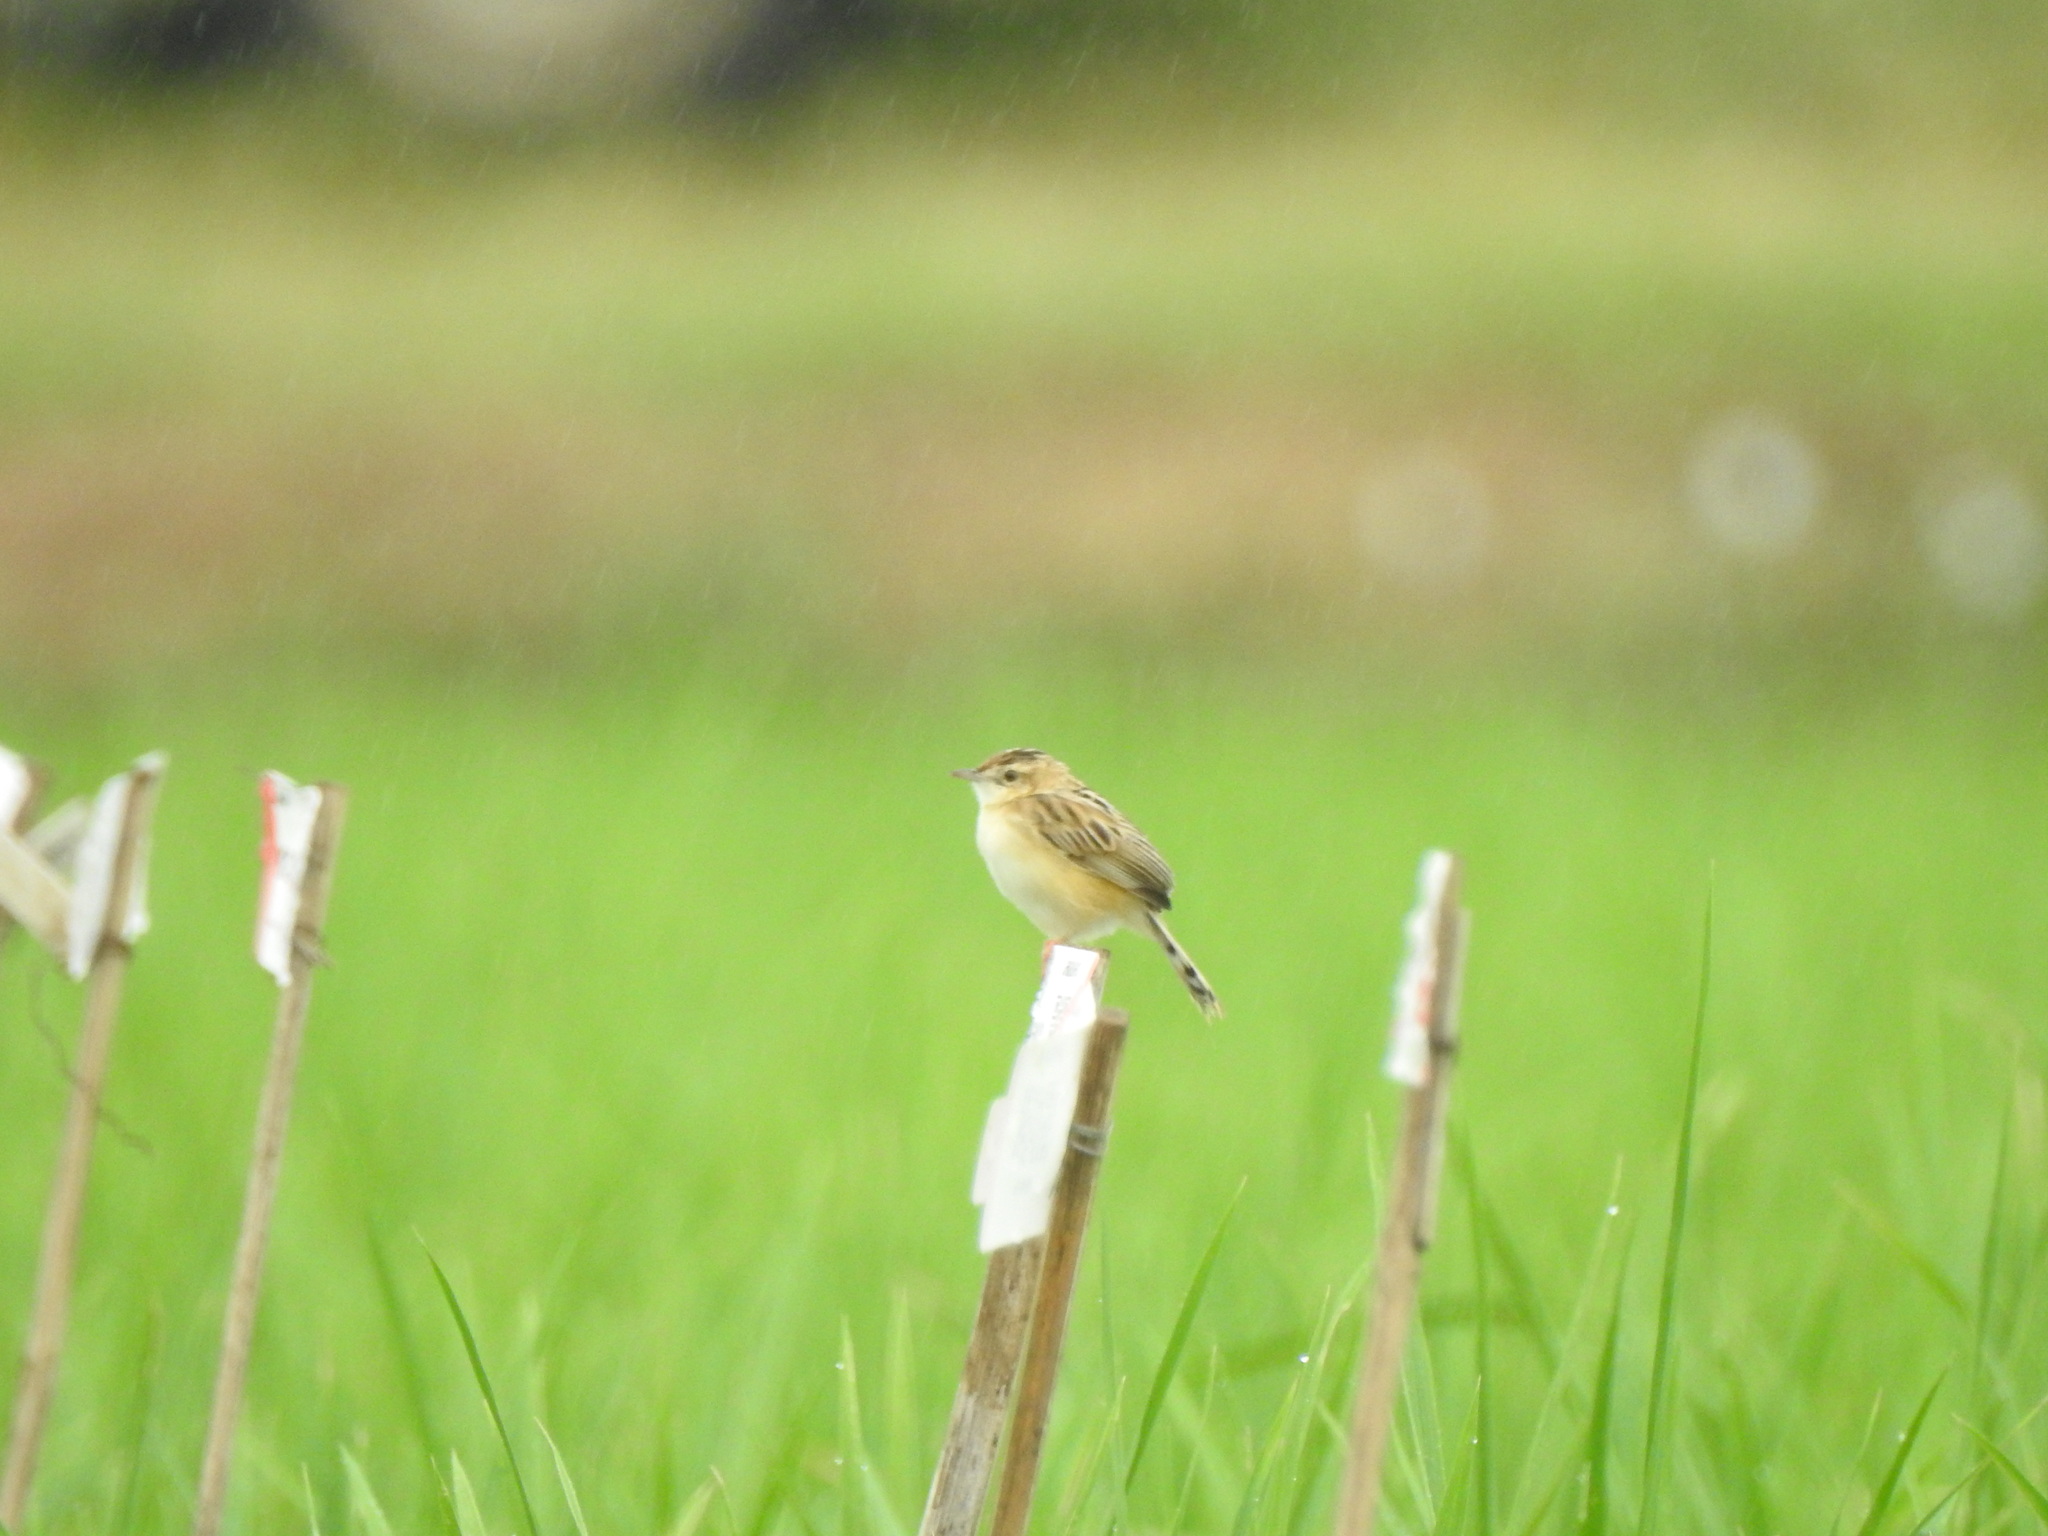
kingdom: Animalia
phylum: Chordata
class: Aves
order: Passeriformes
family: Cisticolidae
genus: Cisticola
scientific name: Cisticola juncidis
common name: Zitting cisticola
